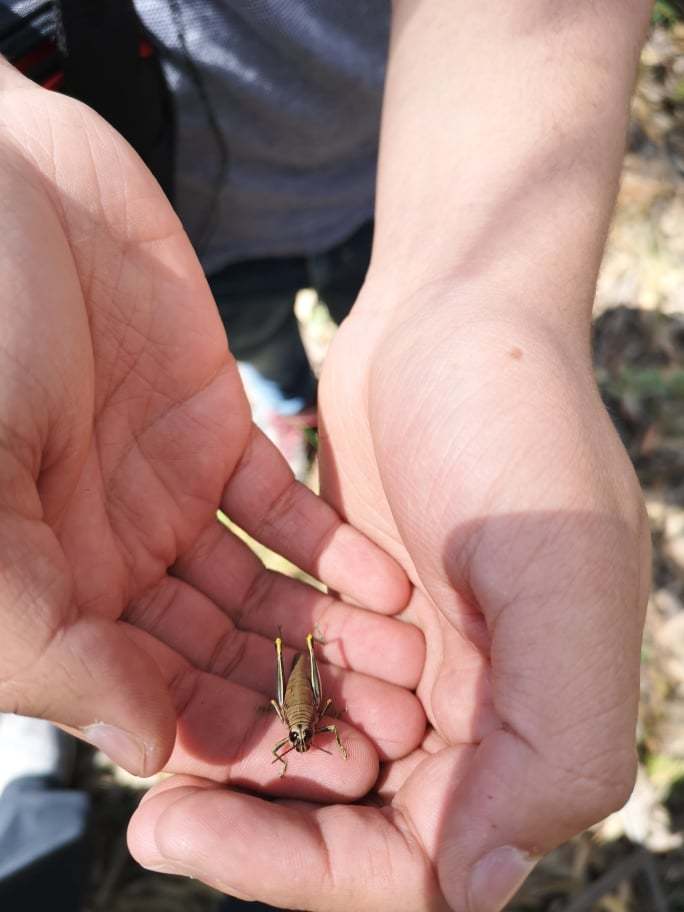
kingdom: Animalia
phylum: Arthropoda
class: Insecta
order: Orthoptera
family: Acrididae
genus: Agesander
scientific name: Agesander ruficornis
